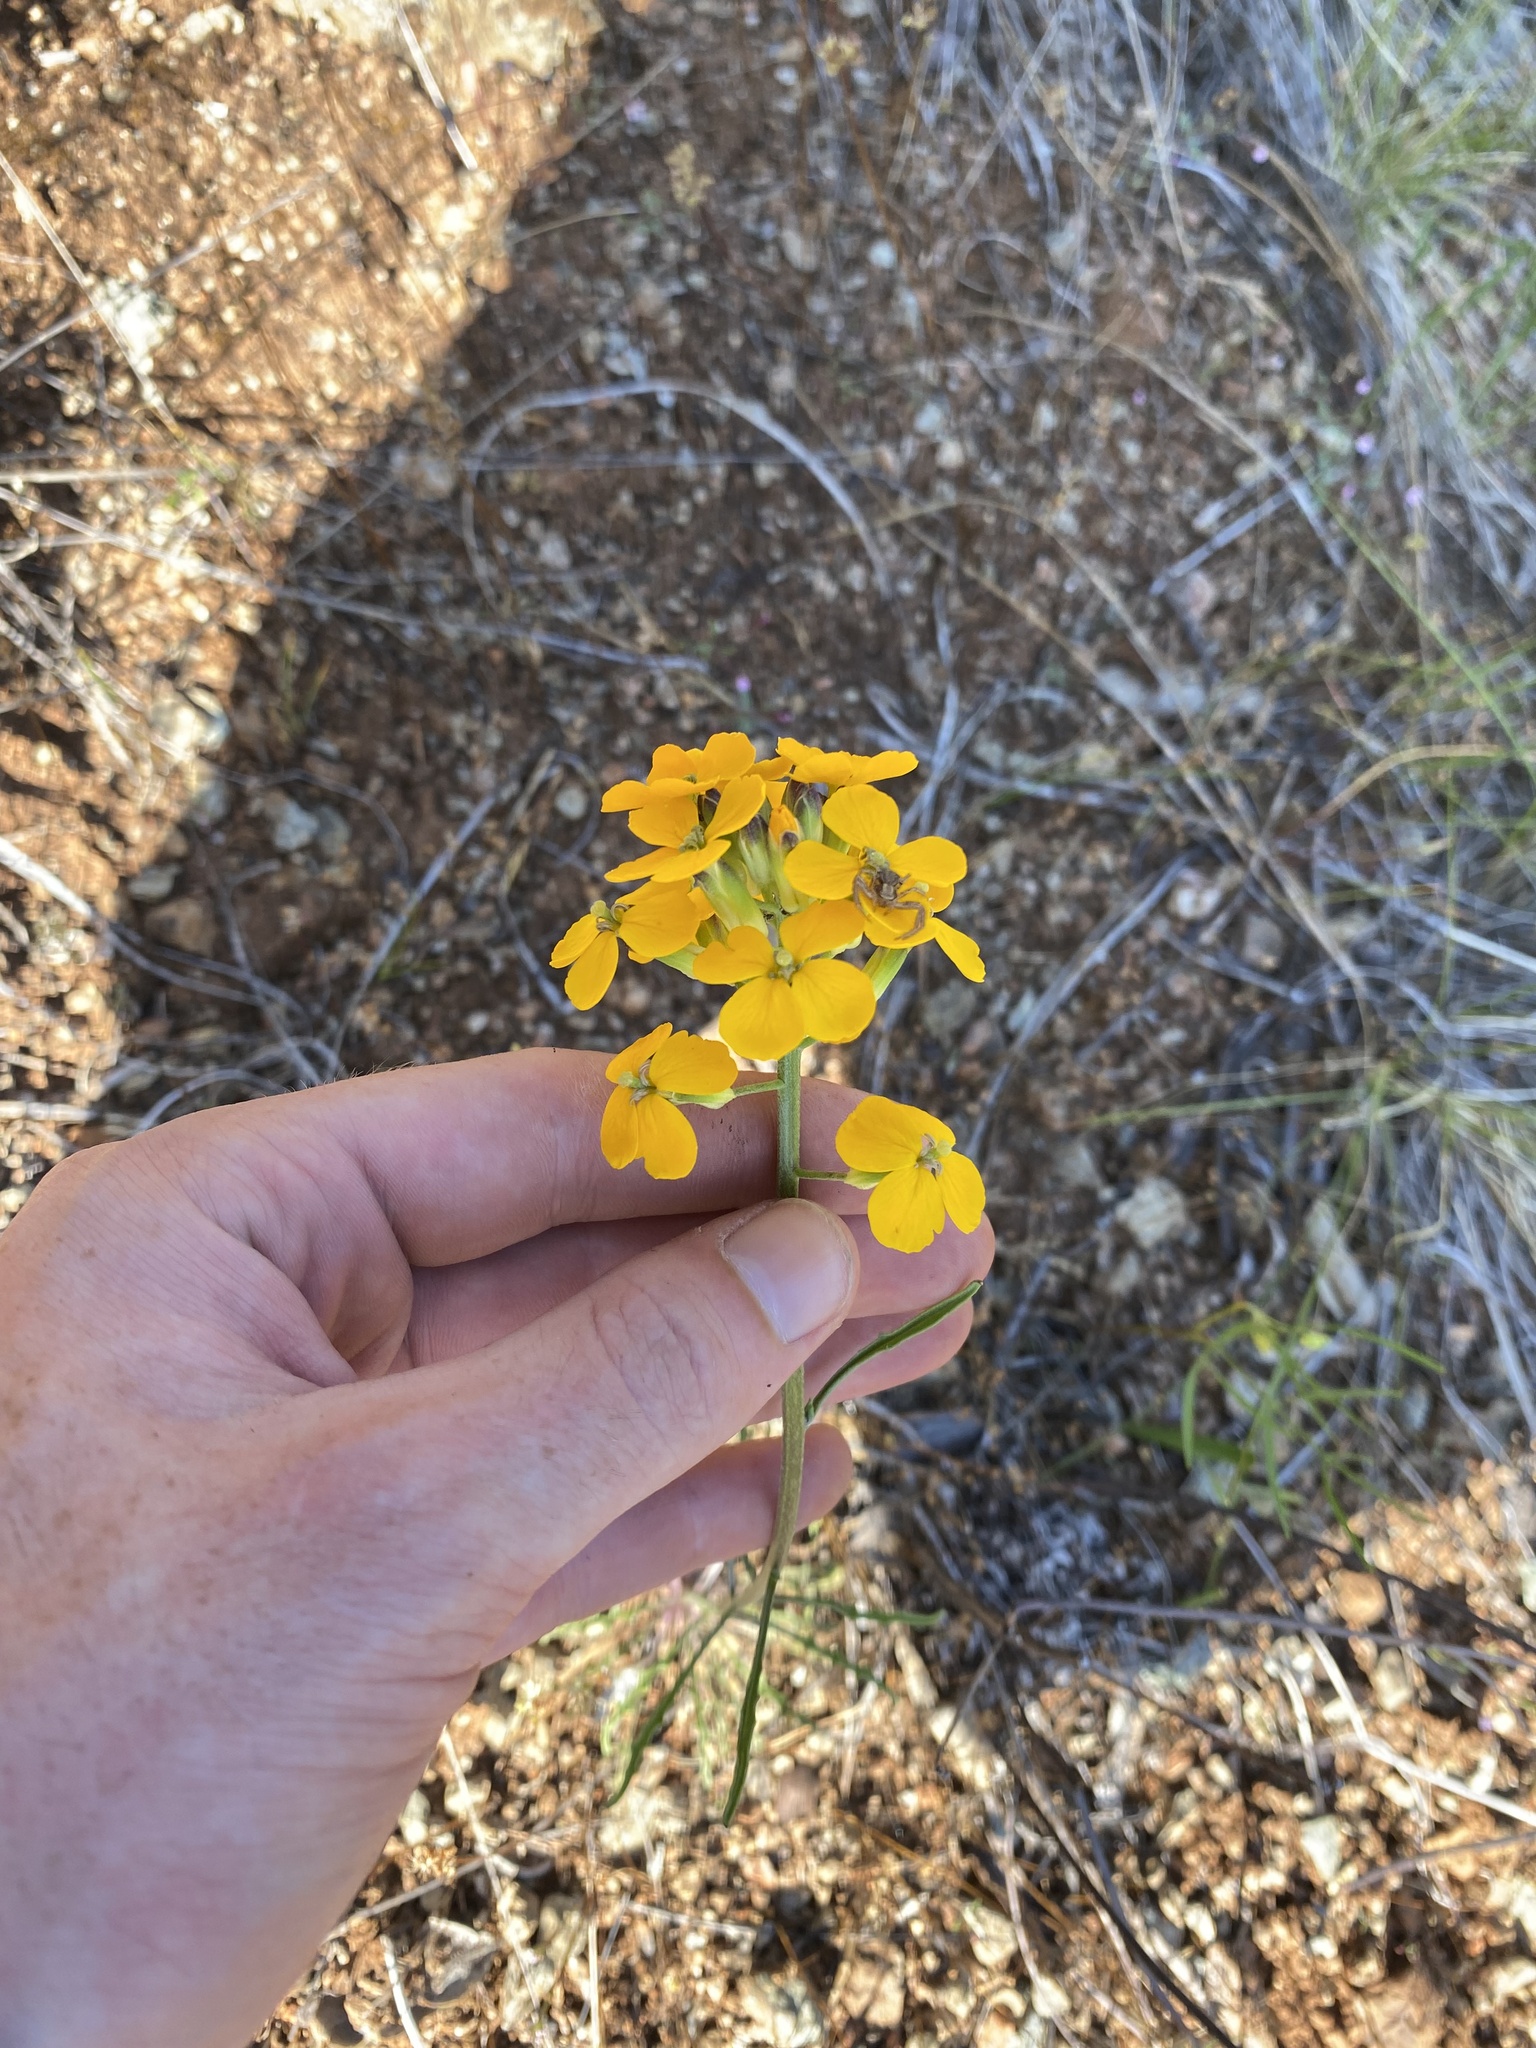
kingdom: Plantae
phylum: Tracheophyta
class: Magnoliopsida
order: Brassicales
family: Brassicaceae
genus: Erysimum
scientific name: Erysimum capitatum
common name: Western wallflower
